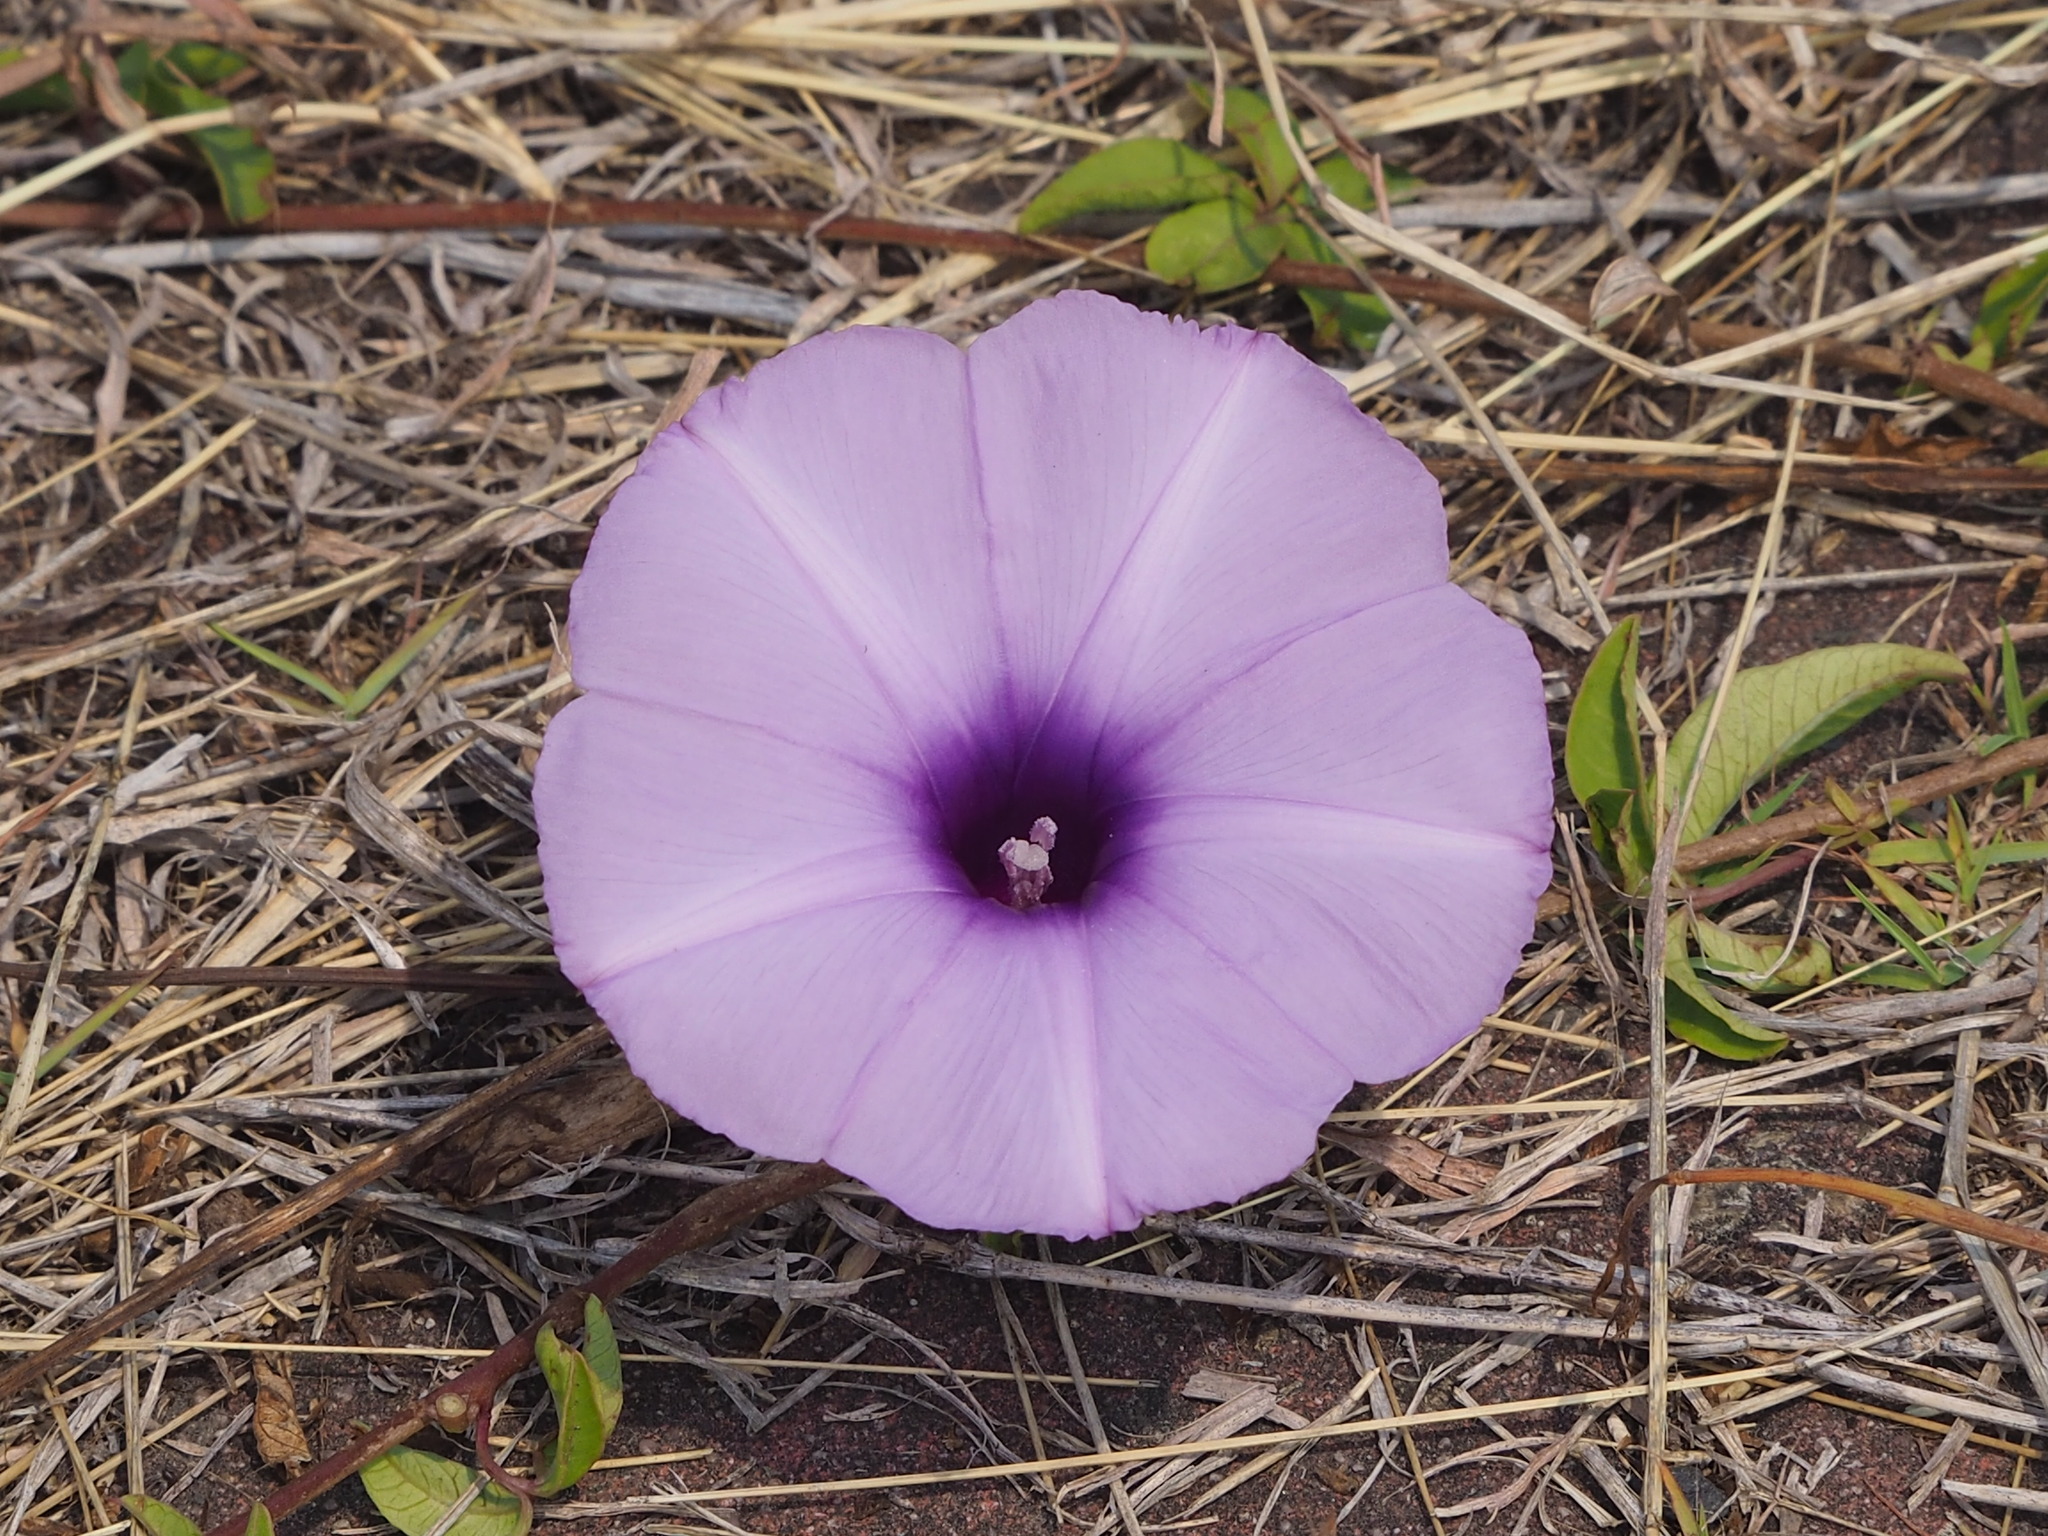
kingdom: Plantae
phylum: Tracheophyta
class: Magnoliopsida
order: Solanales
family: Convolvulaceae
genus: Ipomoea
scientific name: Ipomoea cairica
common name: Mile a minute vine
